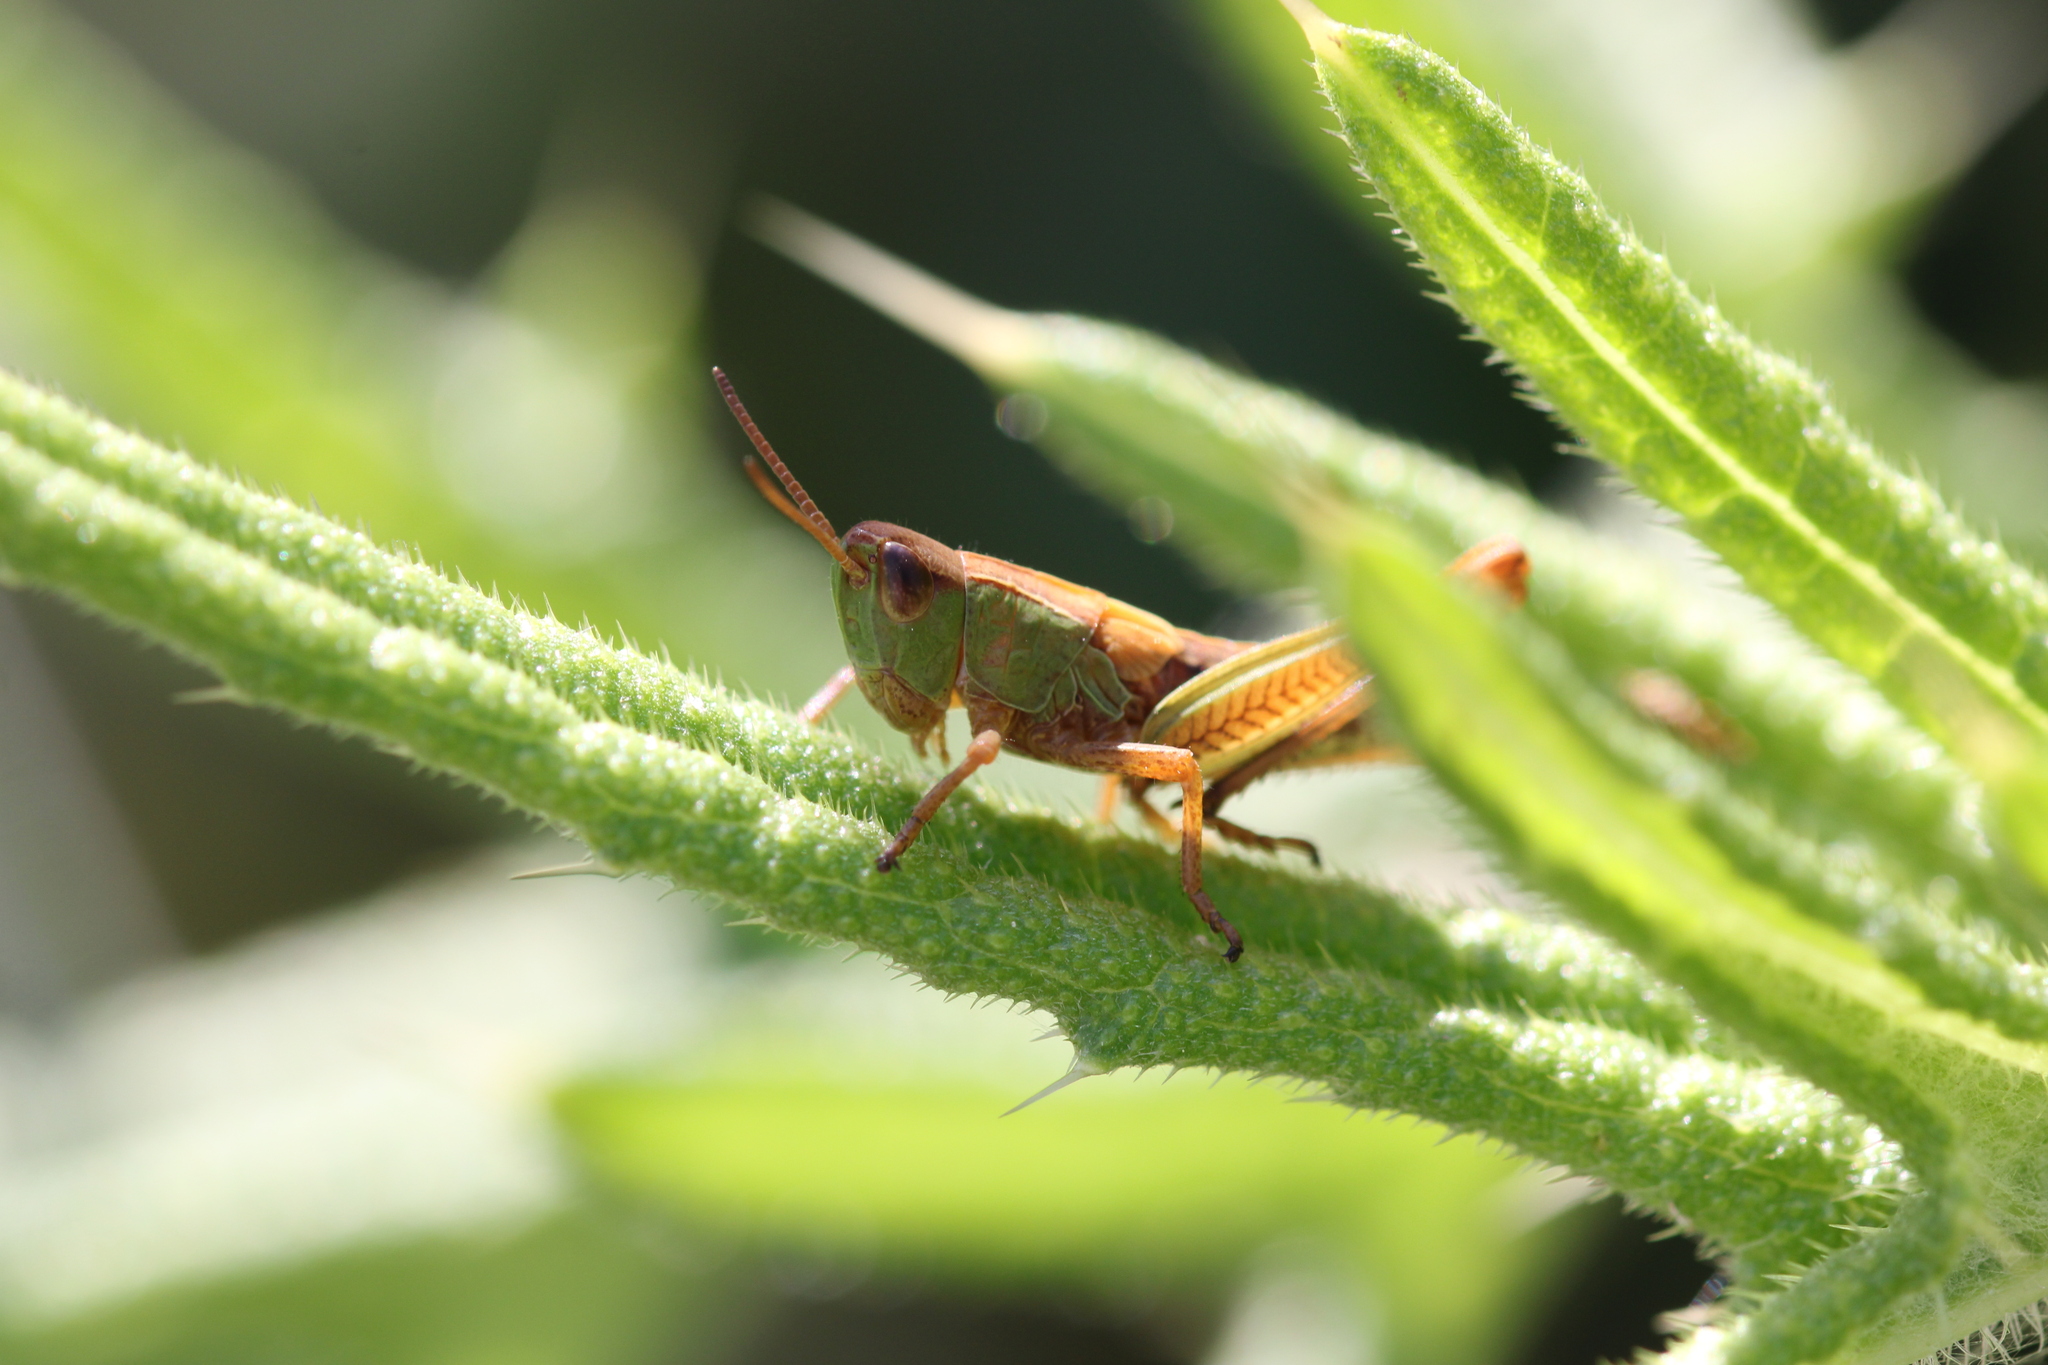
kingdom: Animalia
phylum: Arthropoda
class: Insecta
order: Orthoptera
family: Acrididae
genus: Pseudochorthippus
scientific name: Pseudochorthippus parallelus
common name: Meadow grasshopper
